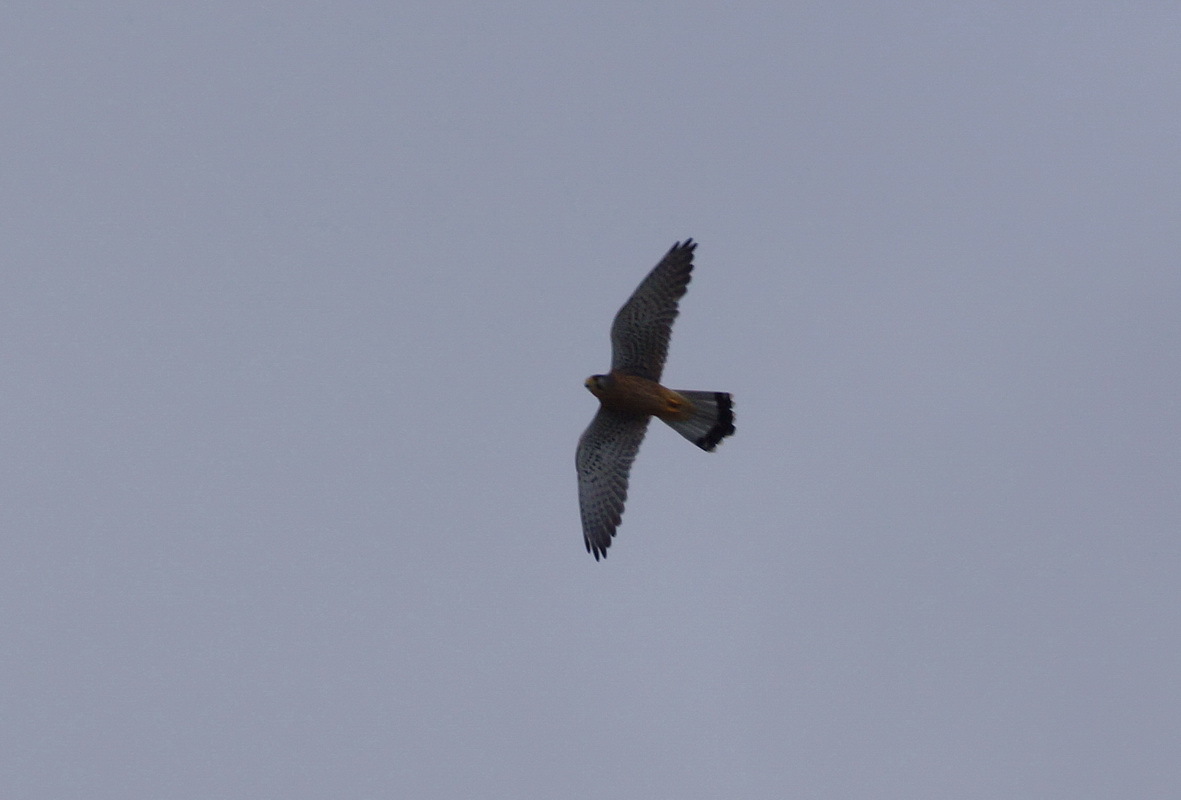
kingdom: Animalia
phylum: Chordata
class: Aves
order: Falconiformes
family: Falconidae
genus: Falco
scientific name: Falco tinnunculus
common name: Common kestrel
